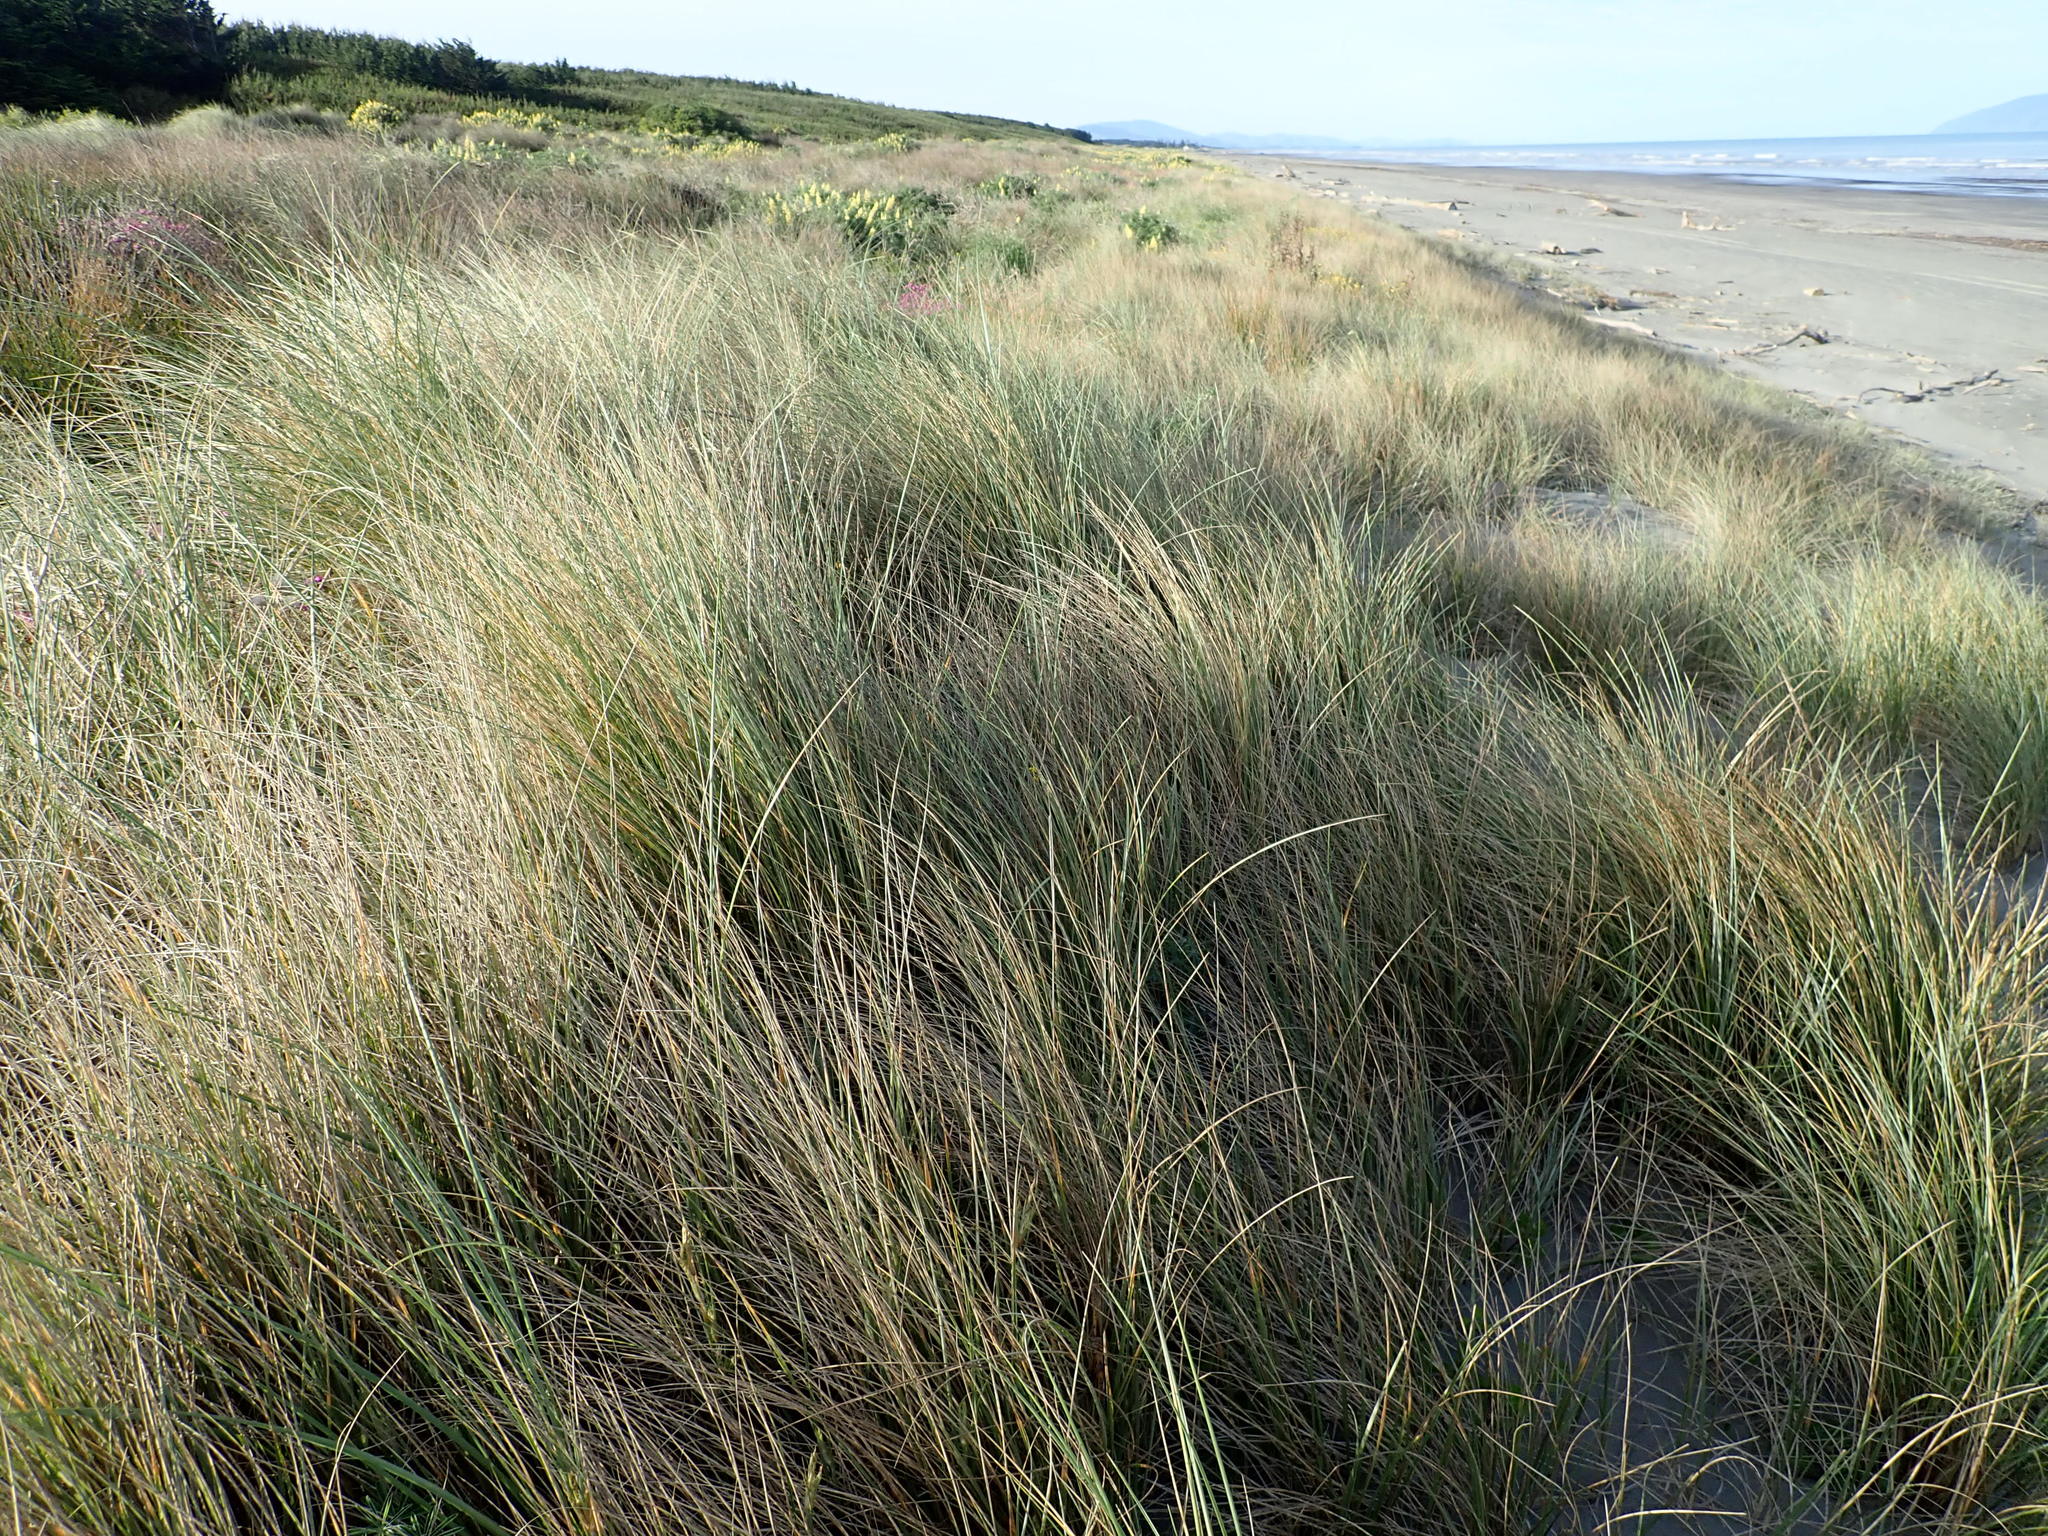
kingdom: Plantae
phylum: Tracheophyta
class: Liliopsida
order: Poales
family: Poaceae
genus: Calamagrostis
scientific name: Calamagrostis arenaria
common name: European beachgrass
